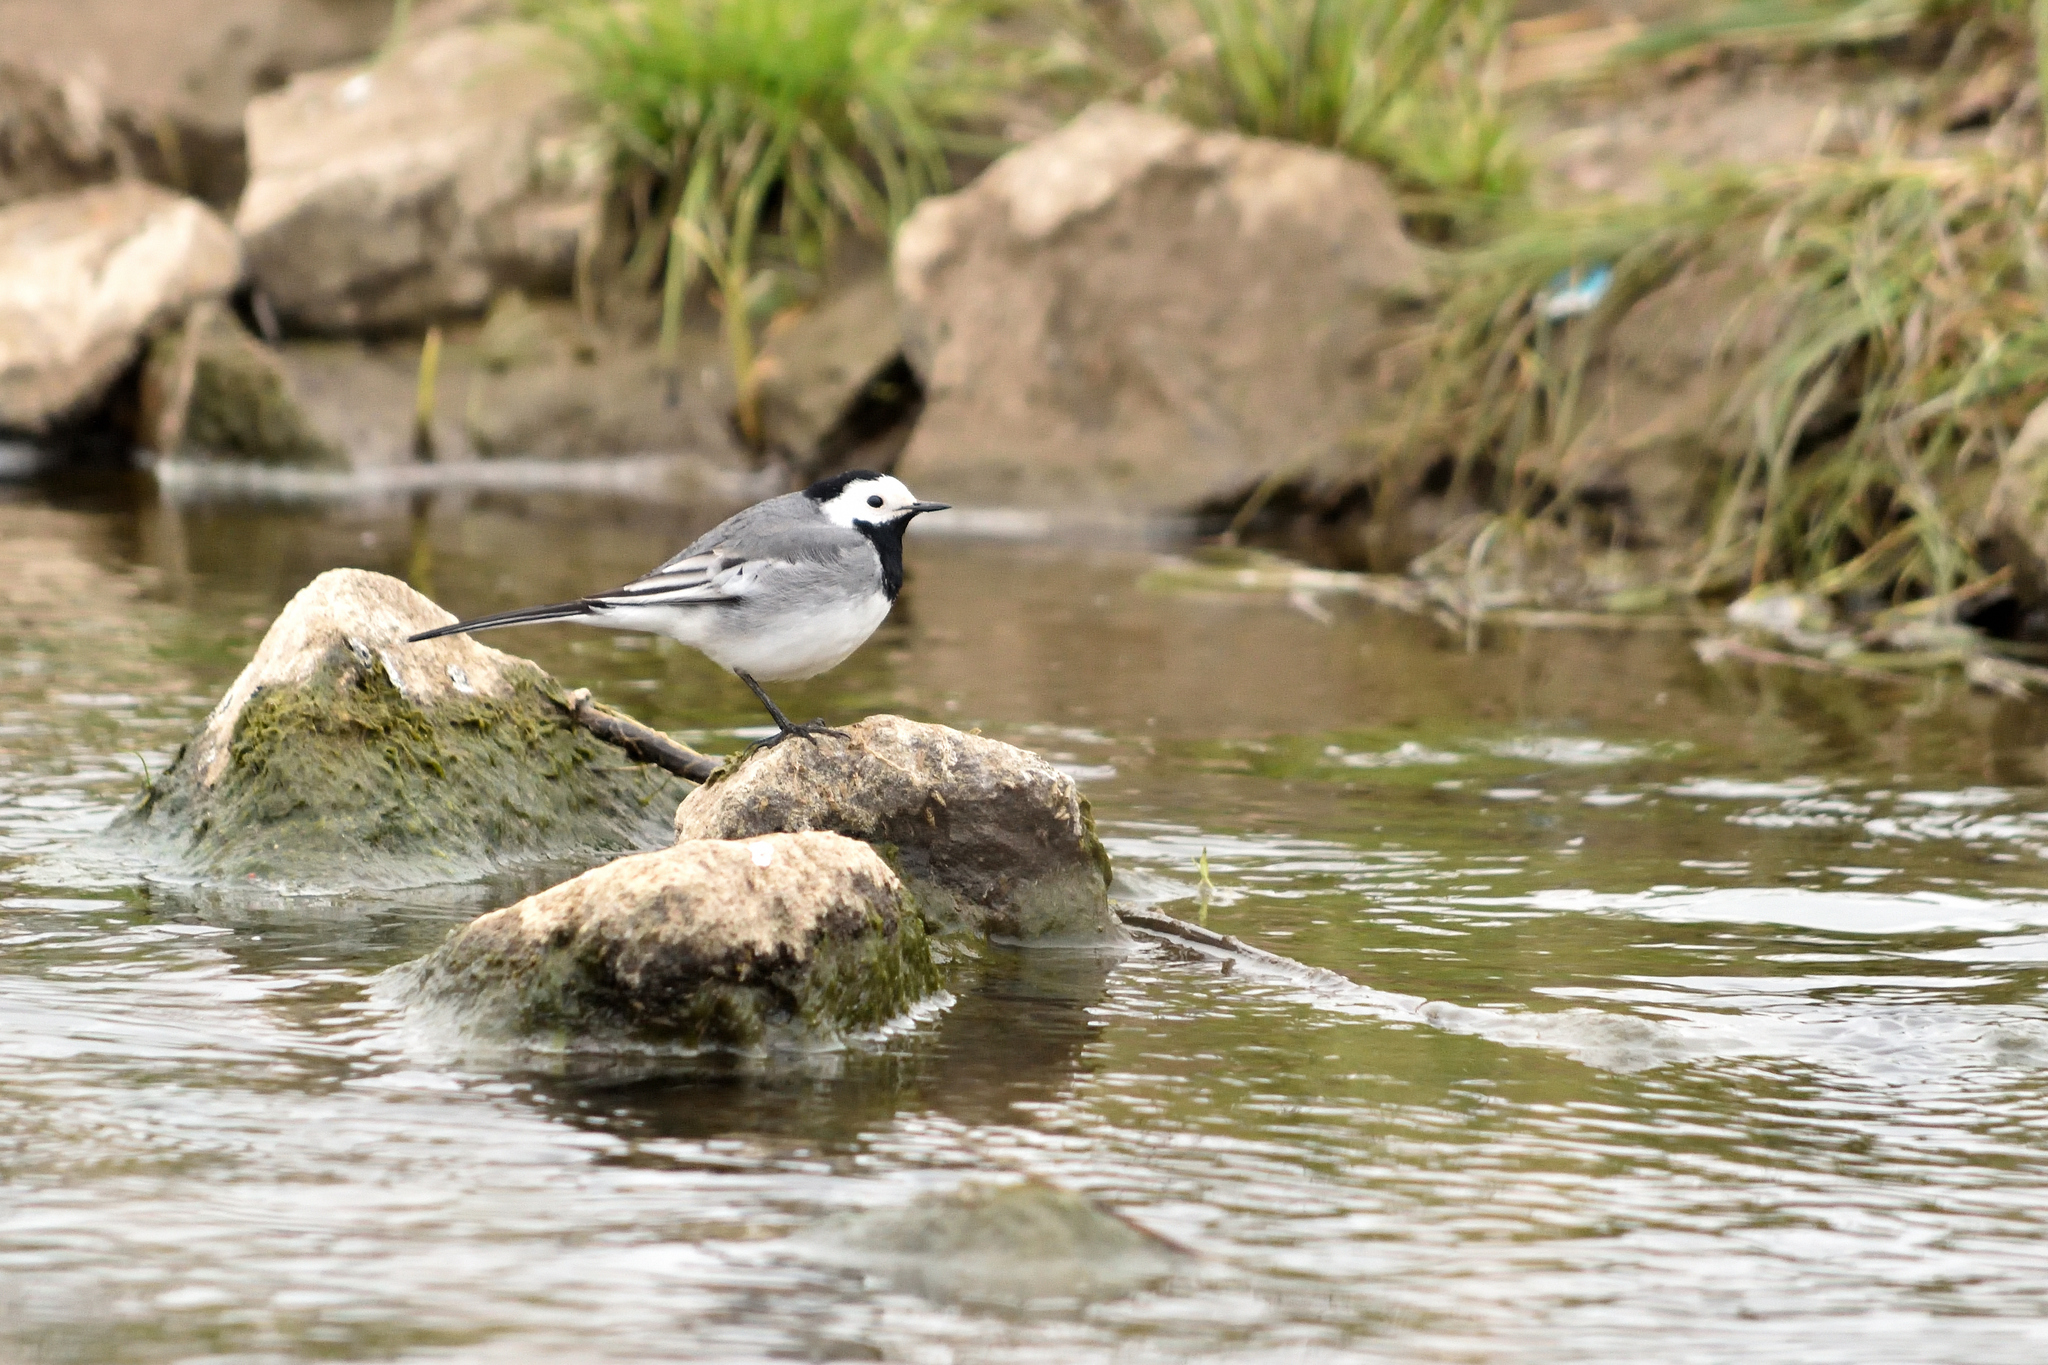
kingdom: Animalia
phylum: Chordata
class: Aves
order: Passeriformes
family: Motacillidae
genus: Motacilla
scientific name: Motacilla alba
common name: White wagtail
